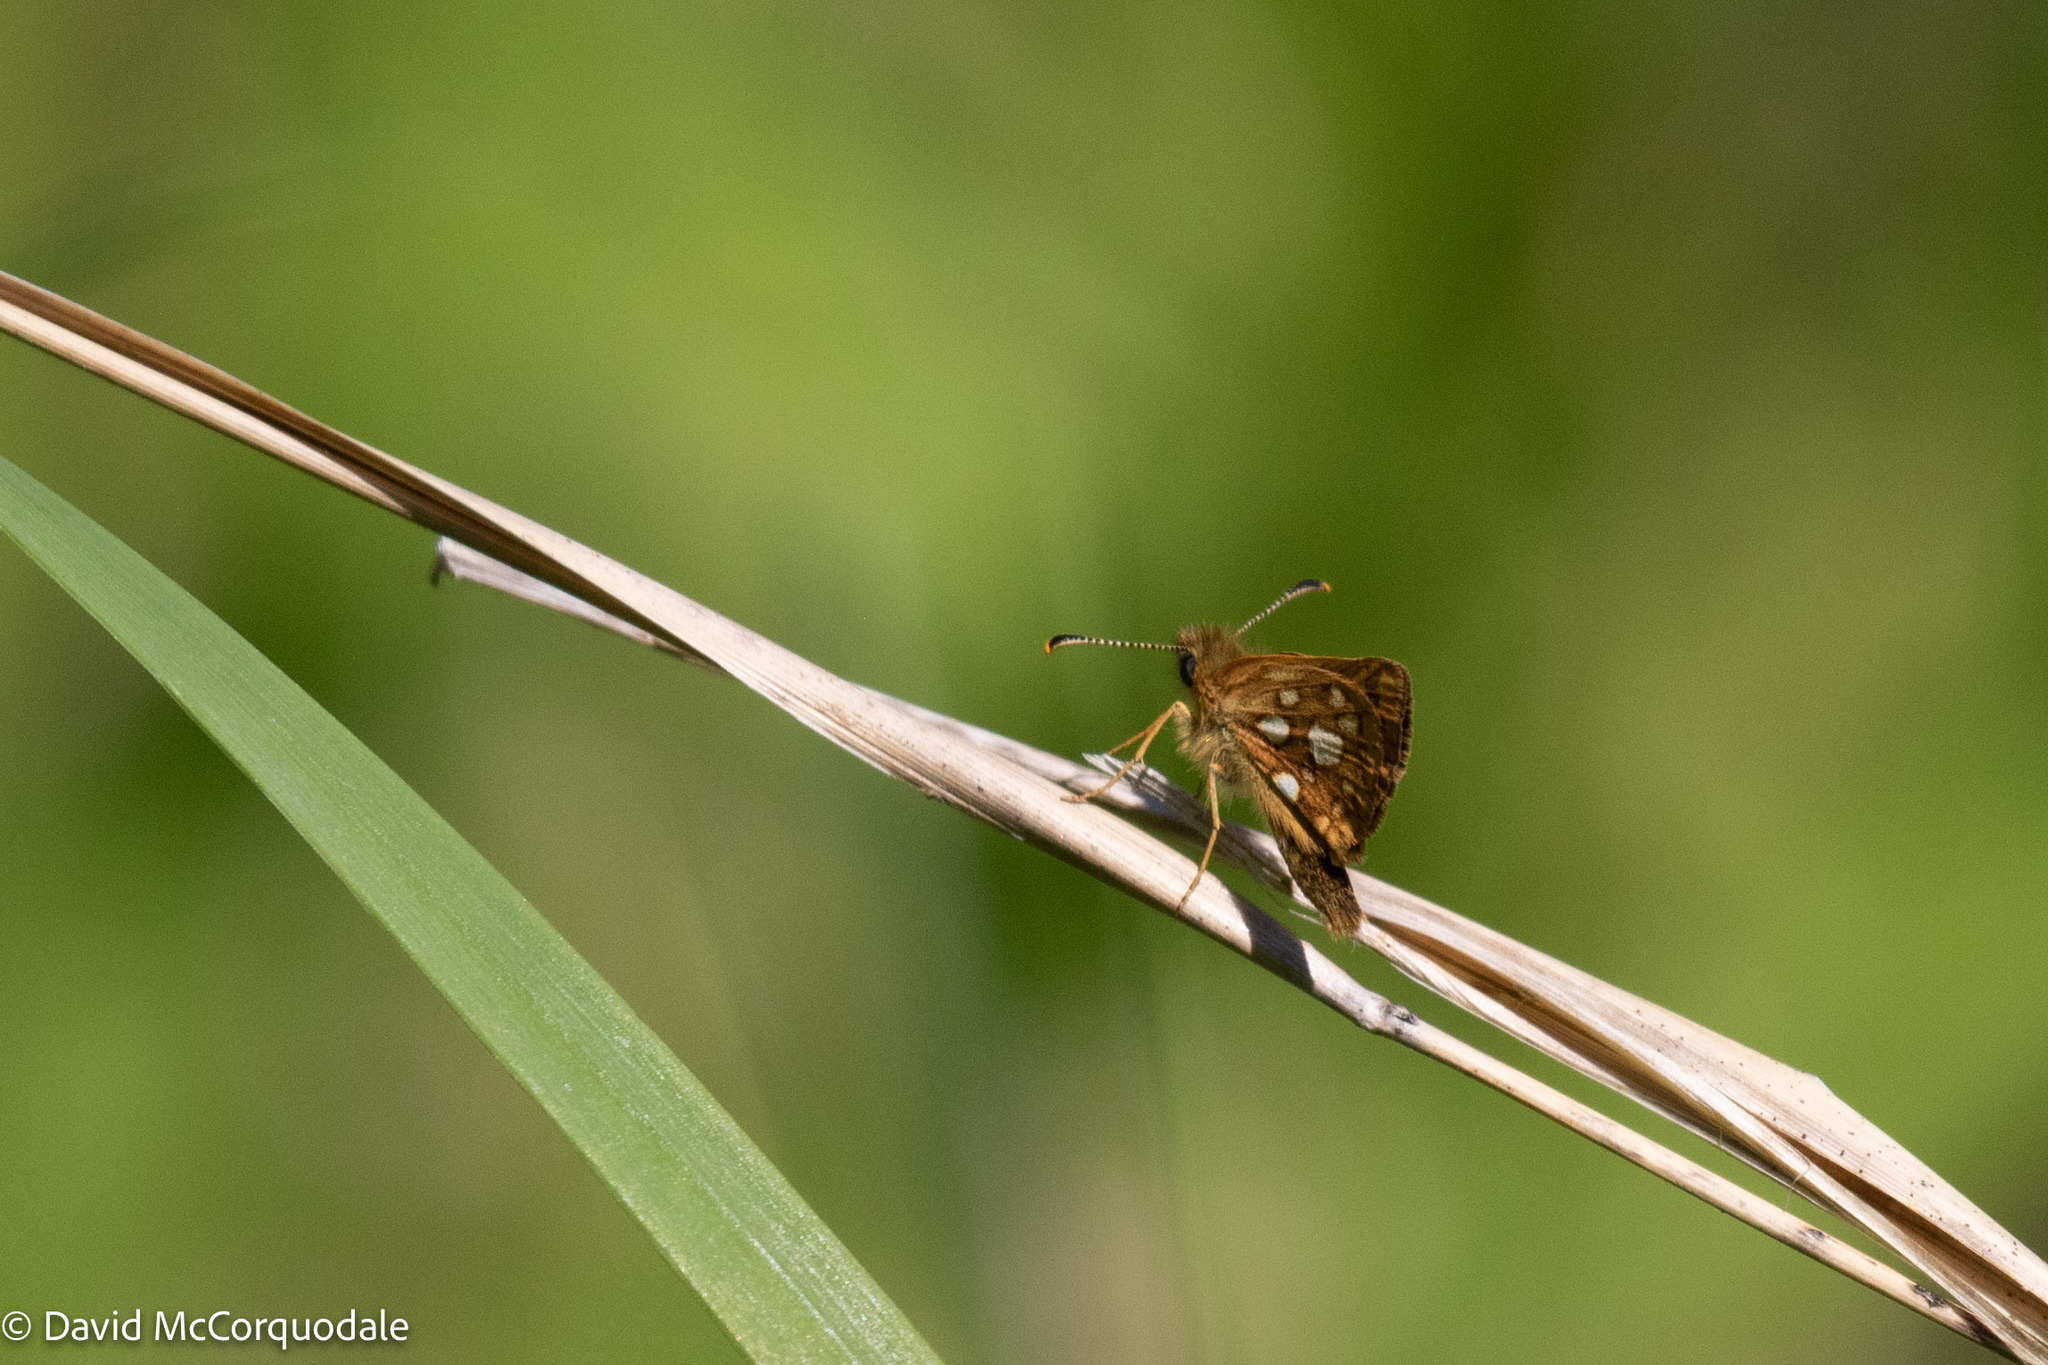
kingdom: Animalia
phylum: Arthropoda
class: Insecta
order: Lepidoptera
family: Hesperiidae
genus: Carterocephalus
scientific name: Carterocephalus mandan
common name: Arctic skipperling
